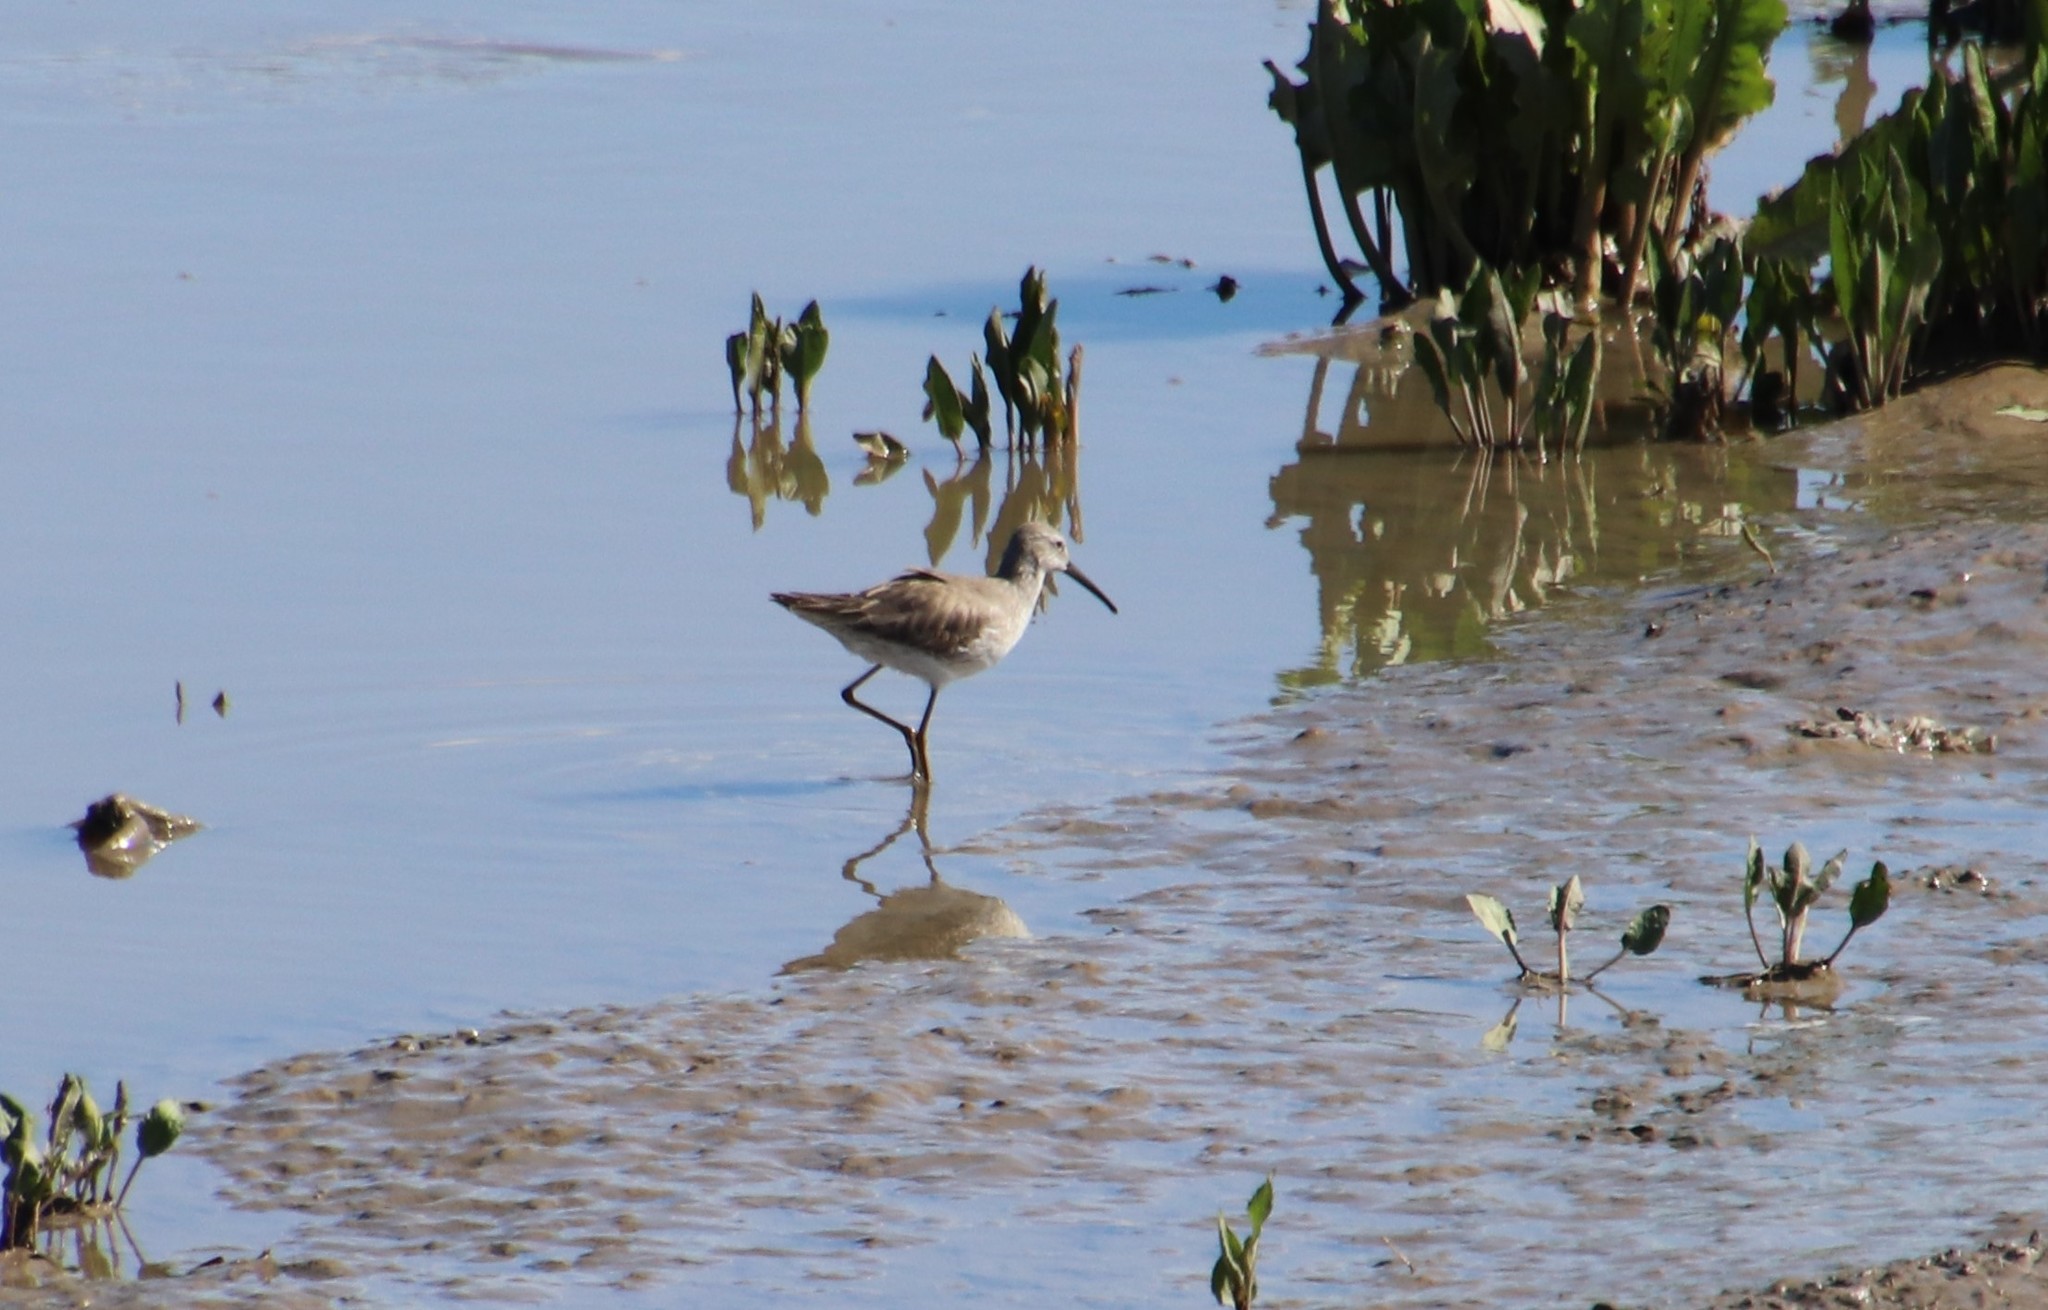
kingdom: Animalia
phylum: Chordata
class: Aves
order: Charadriiformes
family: Scolopacidae
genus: Calidris
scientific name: Calidris himantopus
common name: Stilt sandpiper
